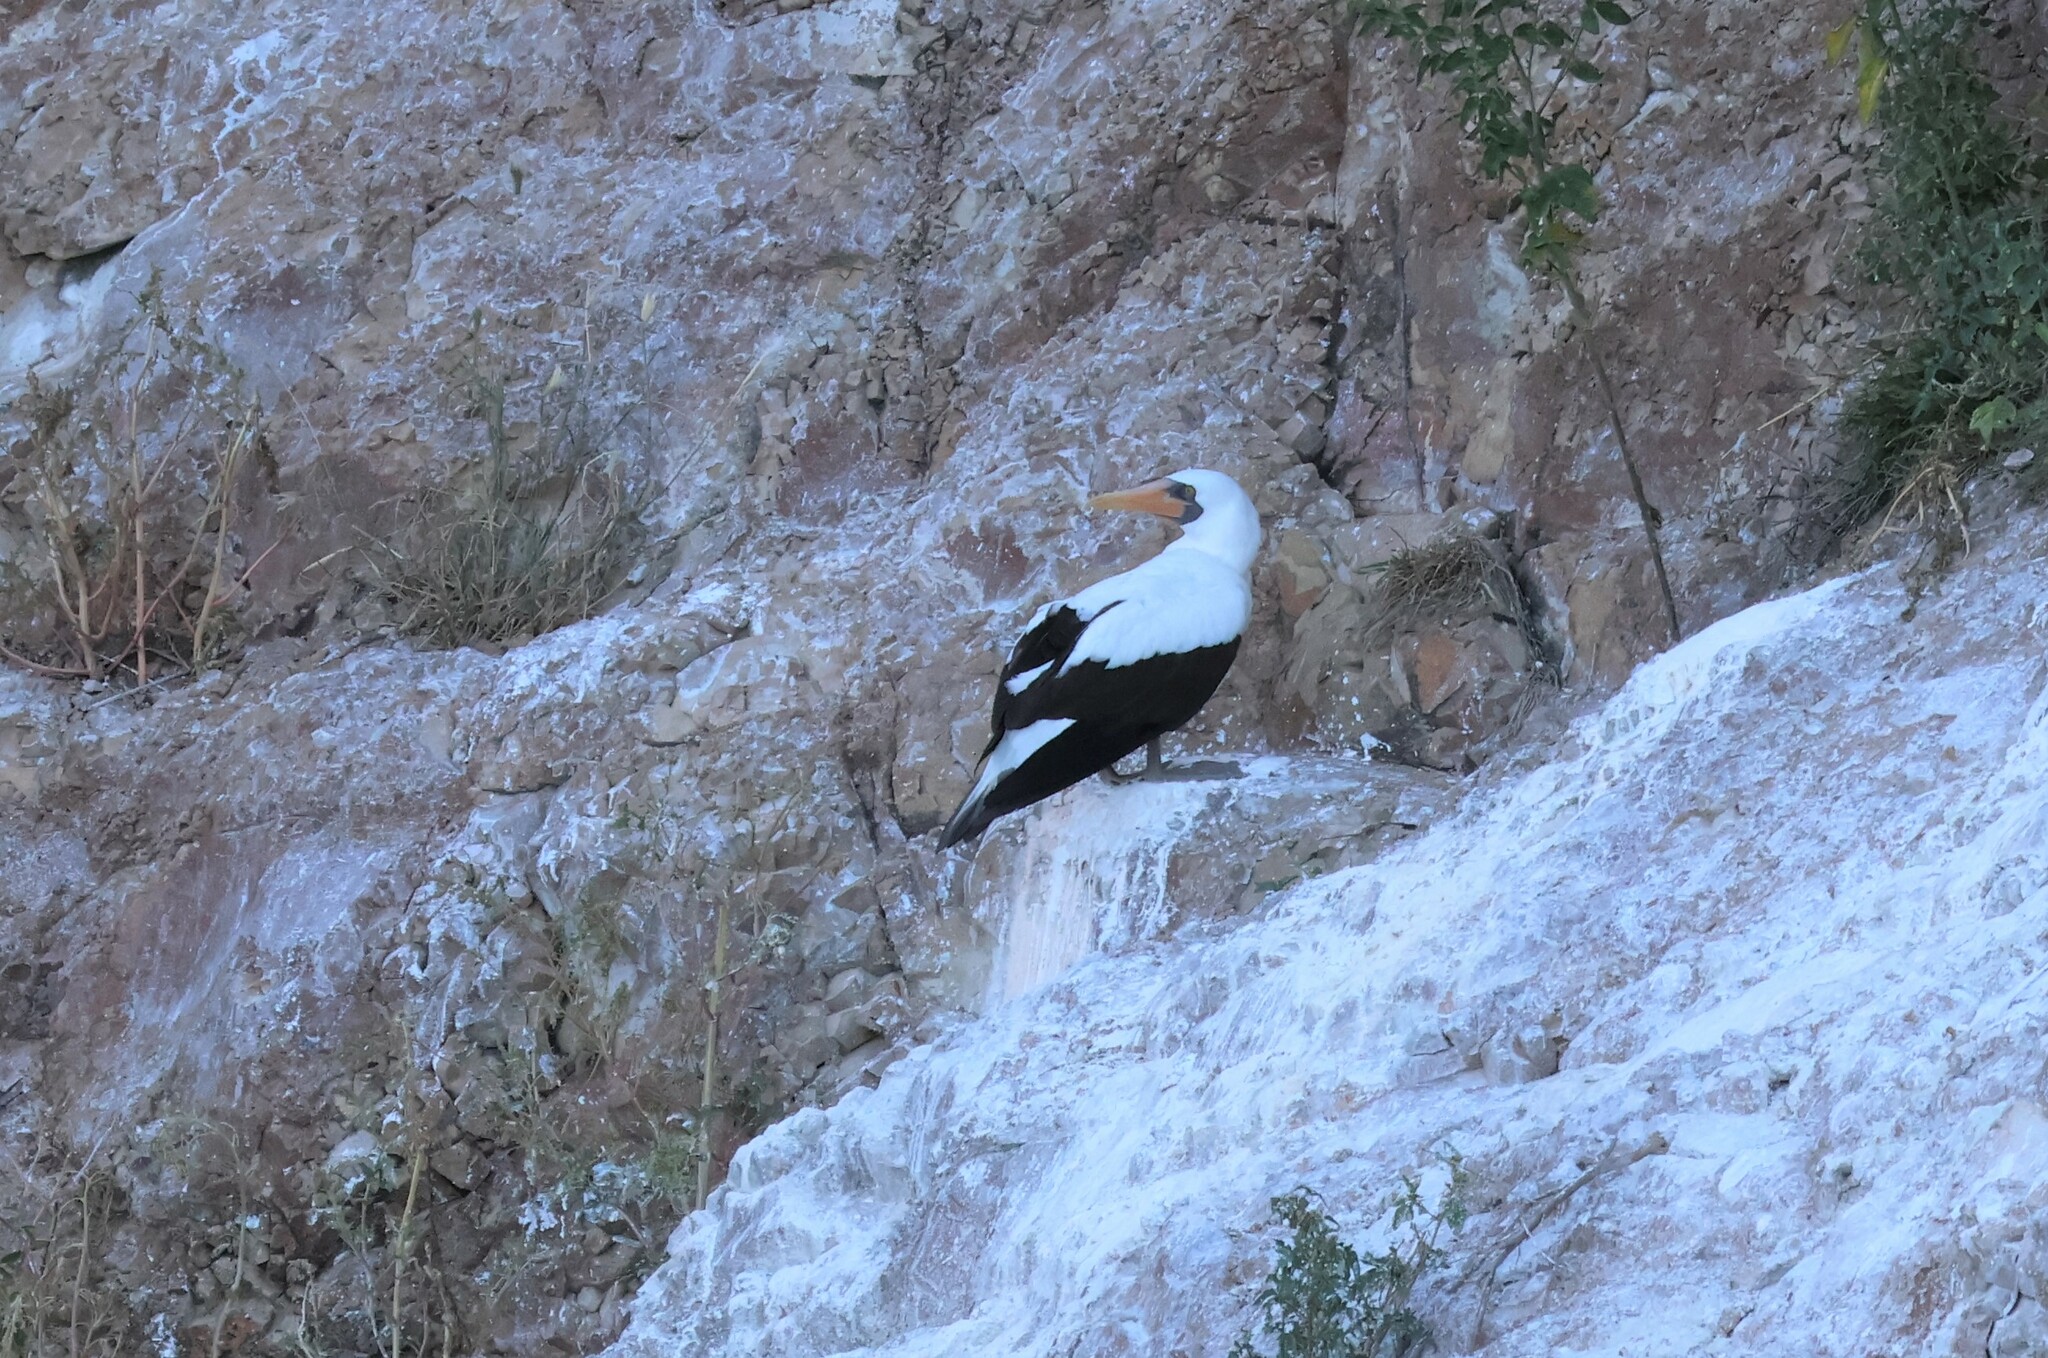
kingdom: Animalia
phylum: Chordata
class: Aves
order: Suliformes
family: Sulidae
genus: Sula
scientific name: Sula granti
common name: Nazca booby
